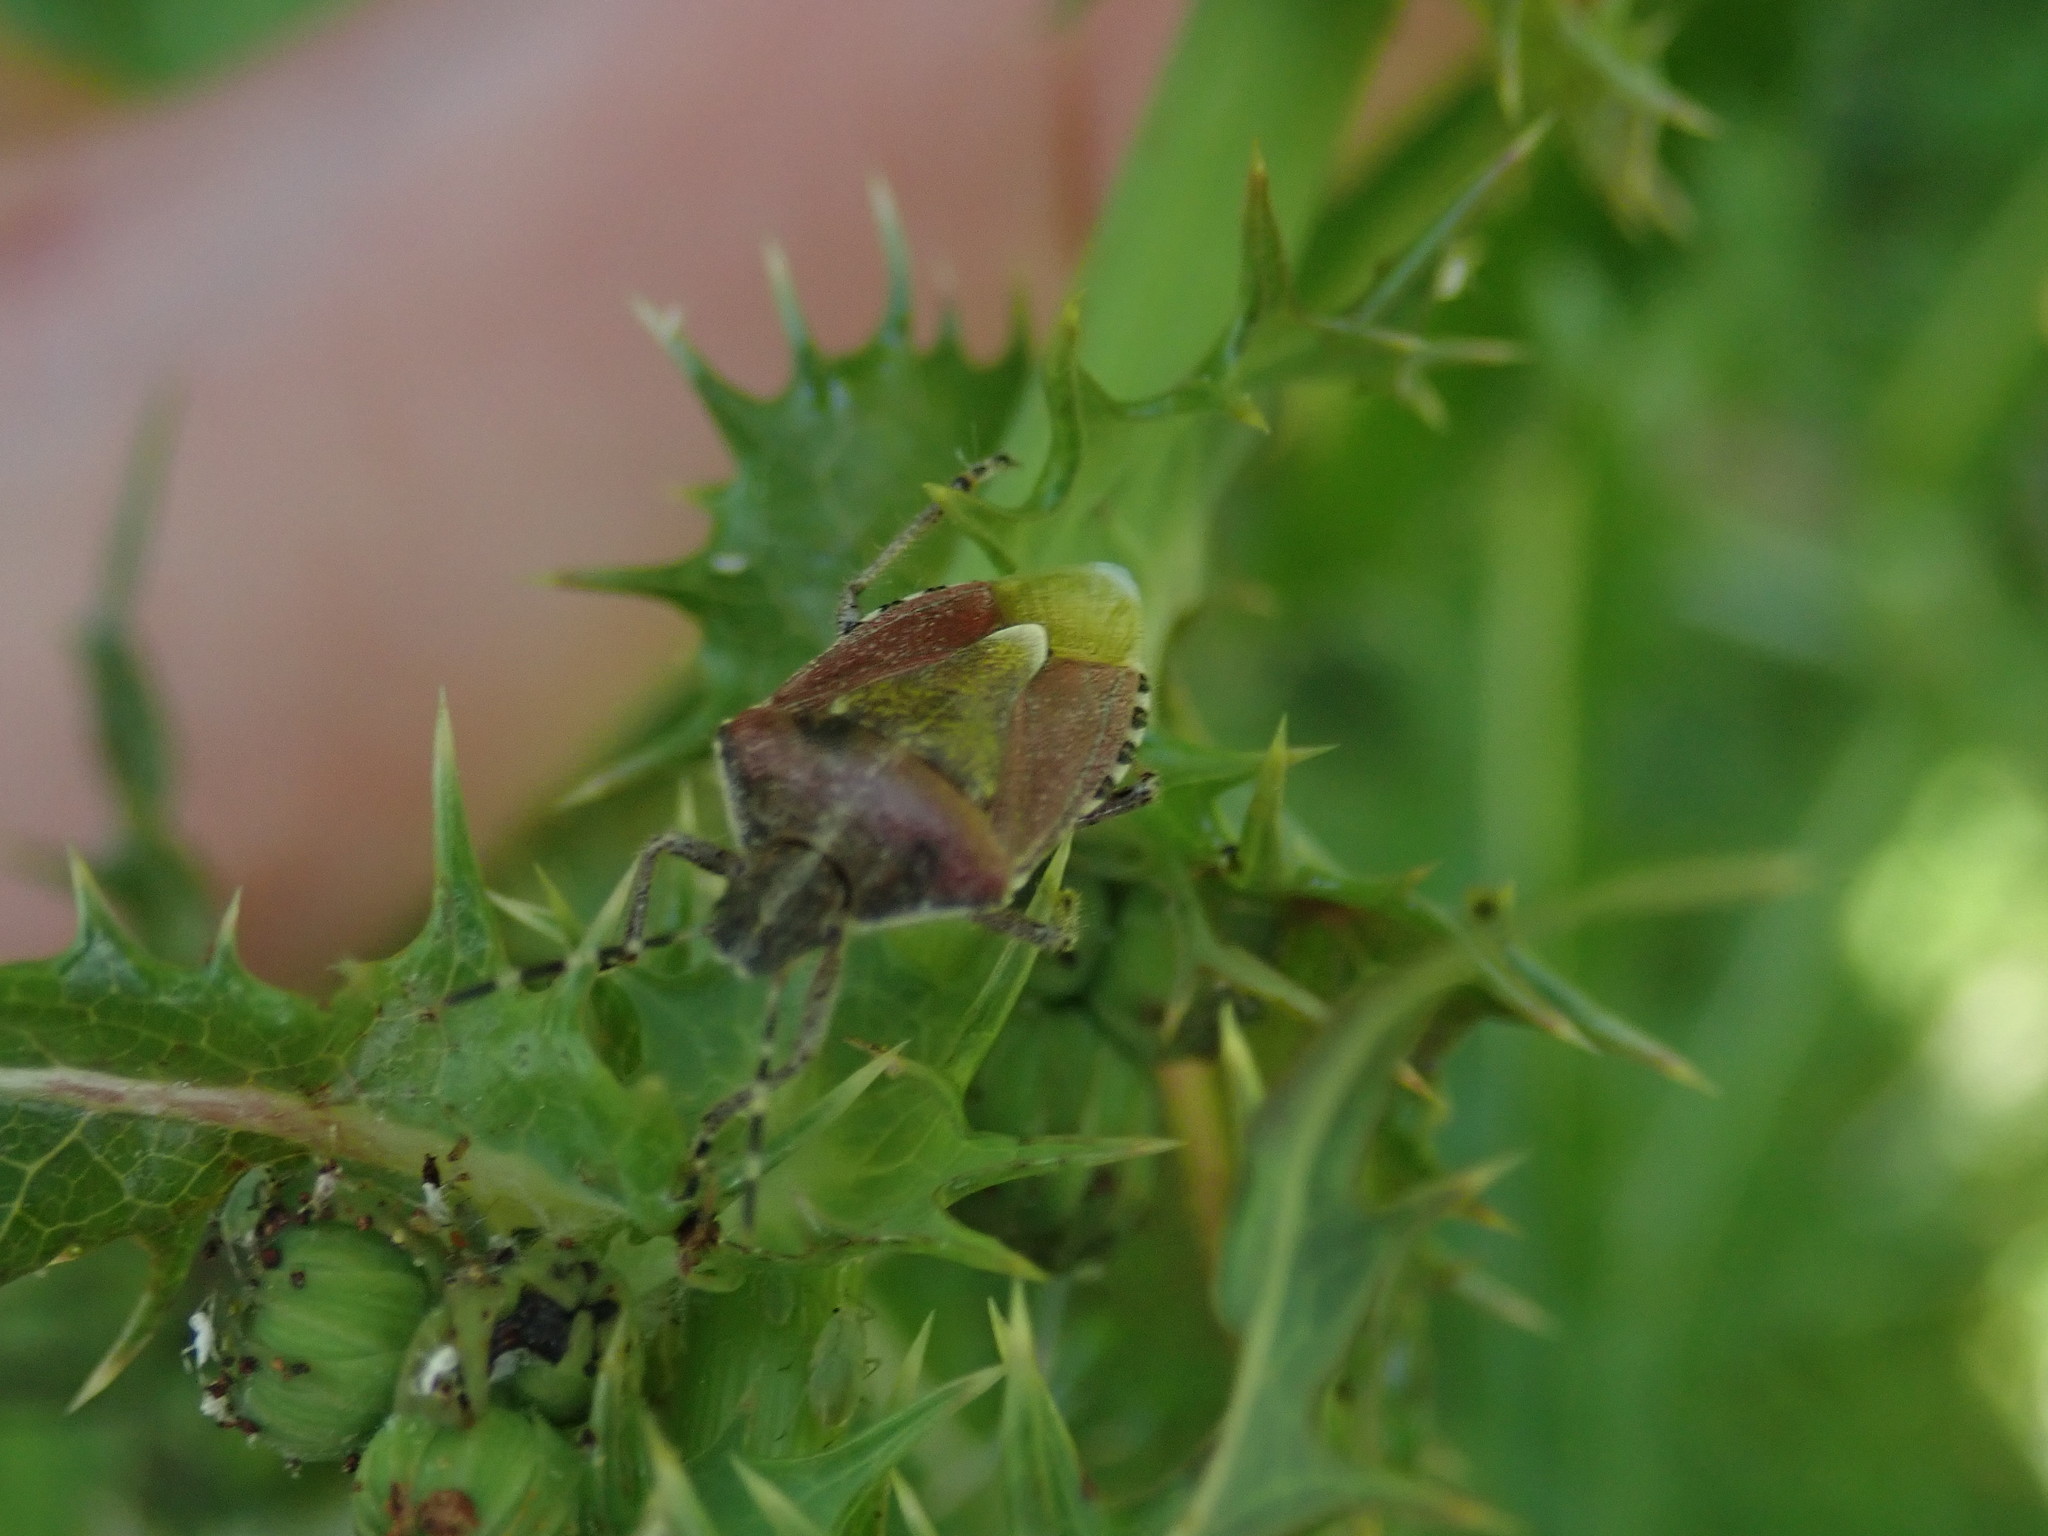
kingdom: Animalia
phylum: Arthropoda
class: Insecta
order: Hemiptera
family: Pentatomidae
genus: Dolycoris
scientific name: Dolycoris baccarum
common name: Sloe bug
